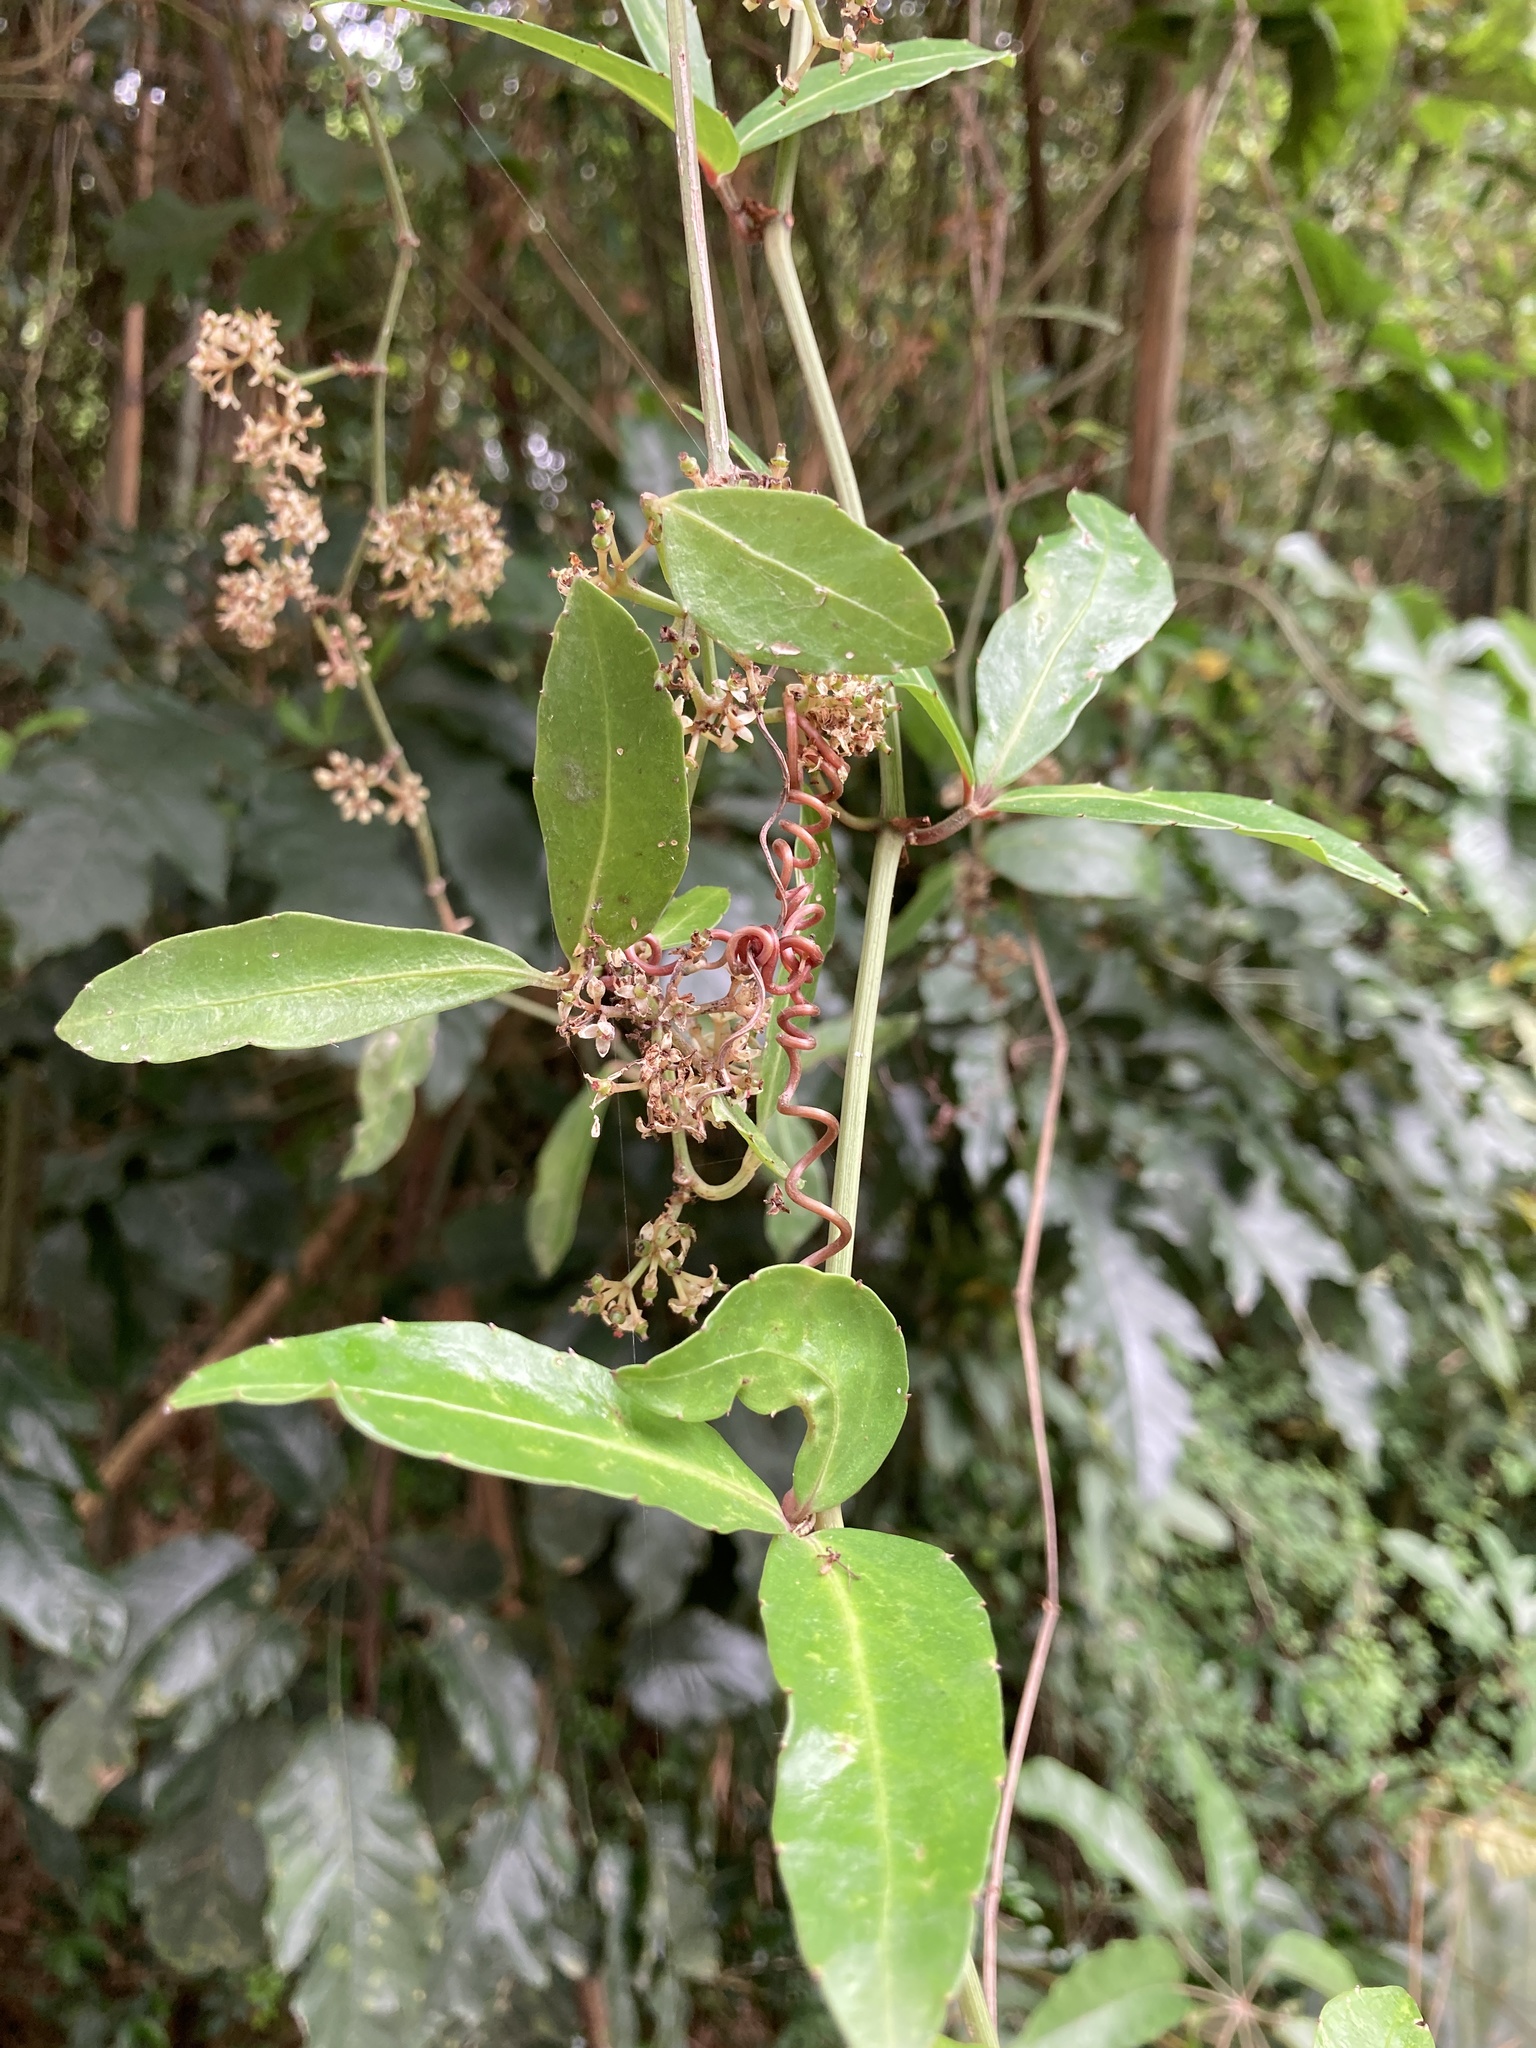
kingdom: Plantae
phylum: Tracheophyta
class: Magnoliopsida
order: Vitales
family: Vitaceae
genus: Tetrastigma
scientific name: Tetrastigma formosanum
